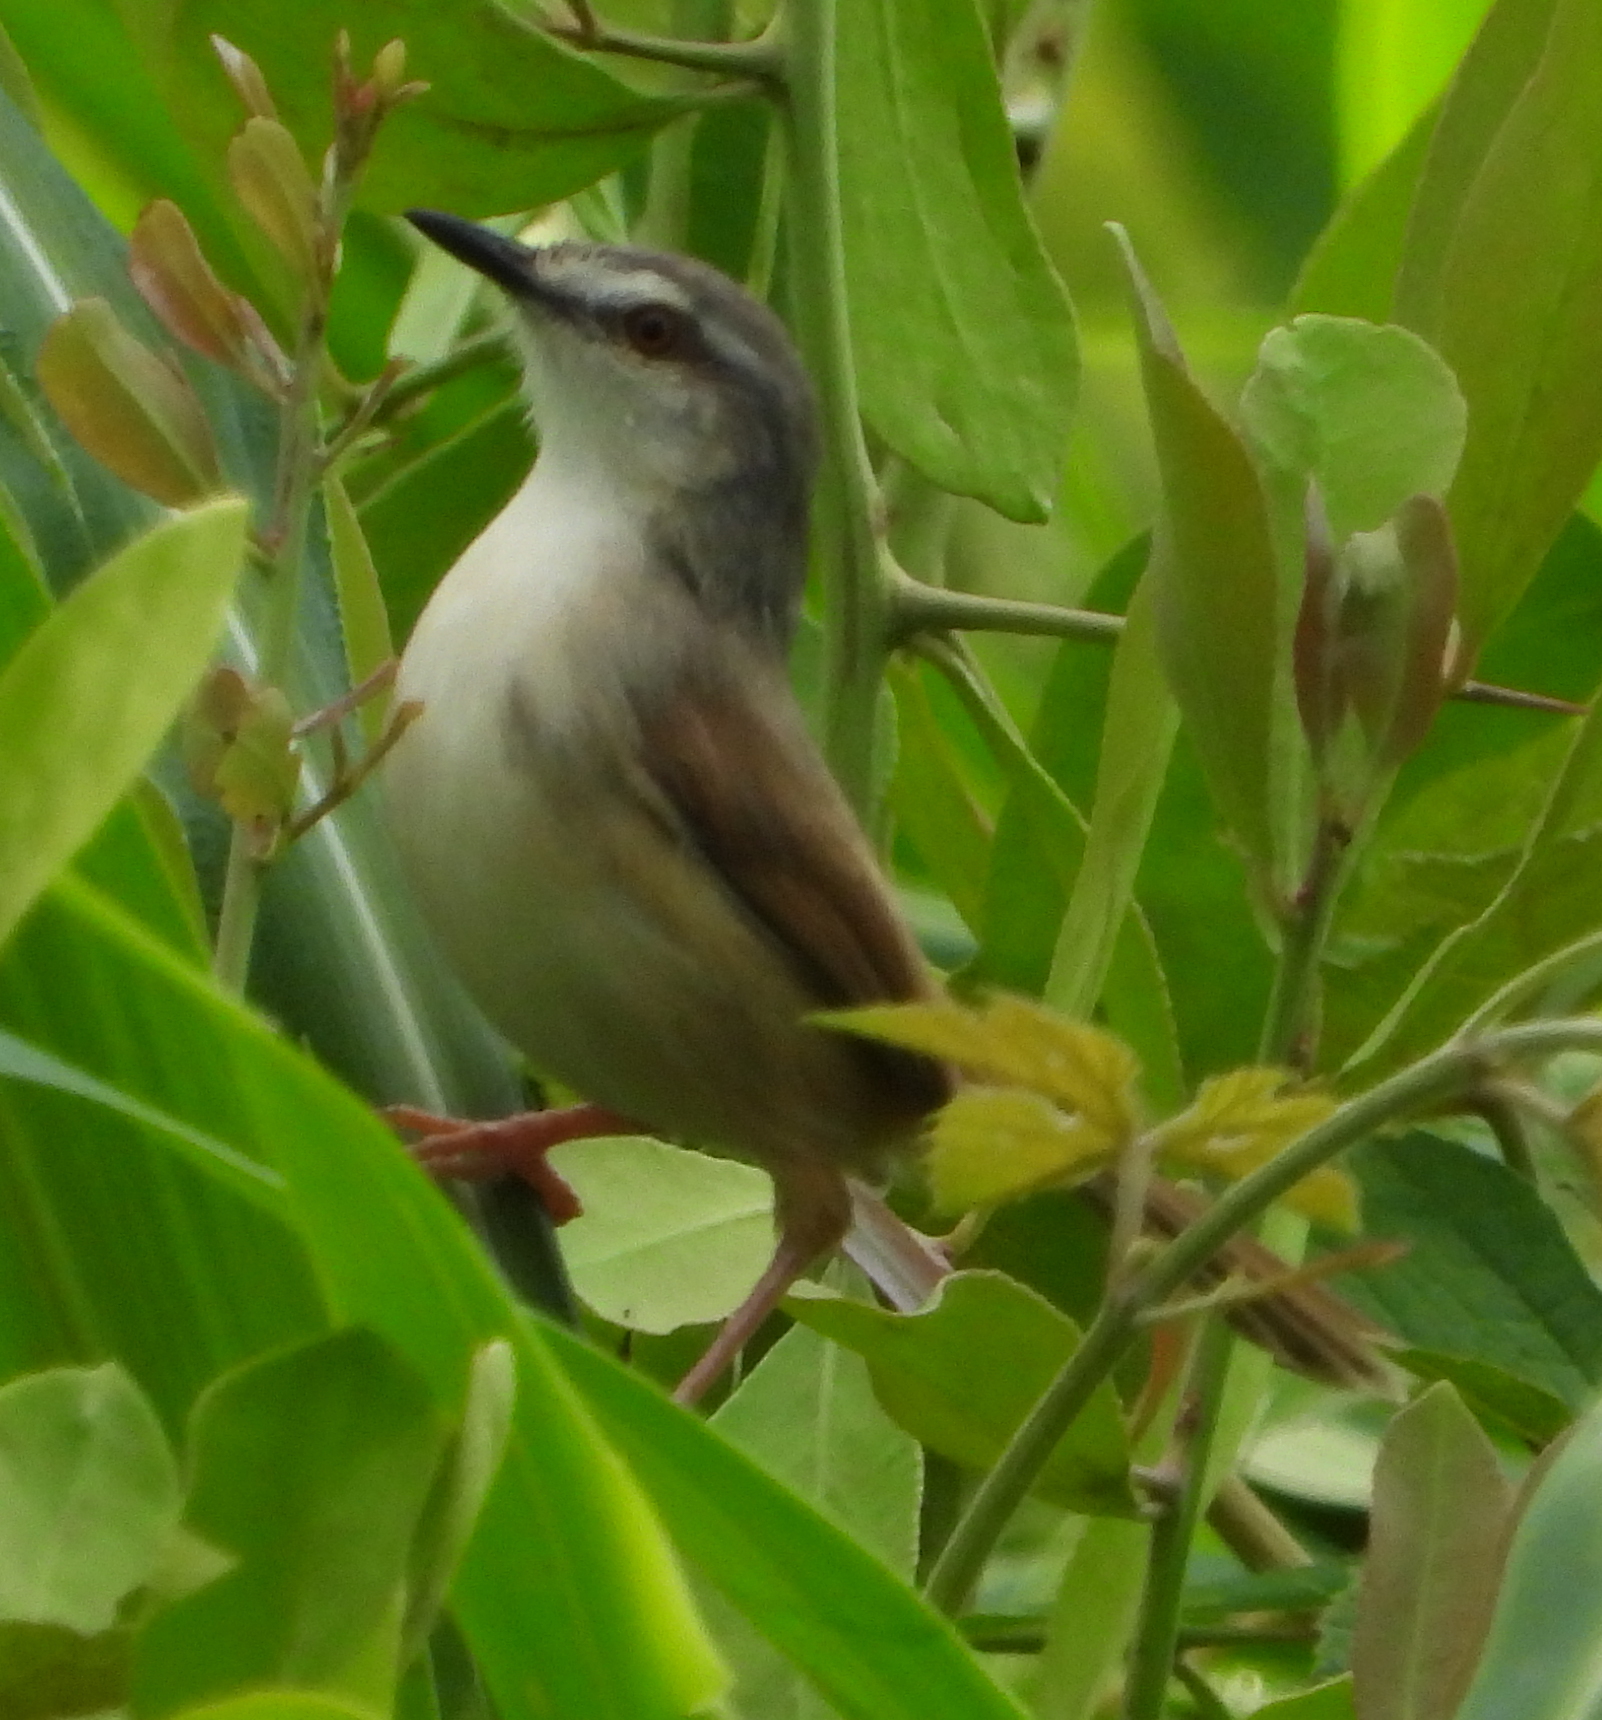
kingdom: Animalia
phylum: Chordata
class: Aves
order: Passeriformes
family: Cisticolidae
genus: Prinia
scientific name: Prinia subflava
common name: Tawny-flanked prinia
